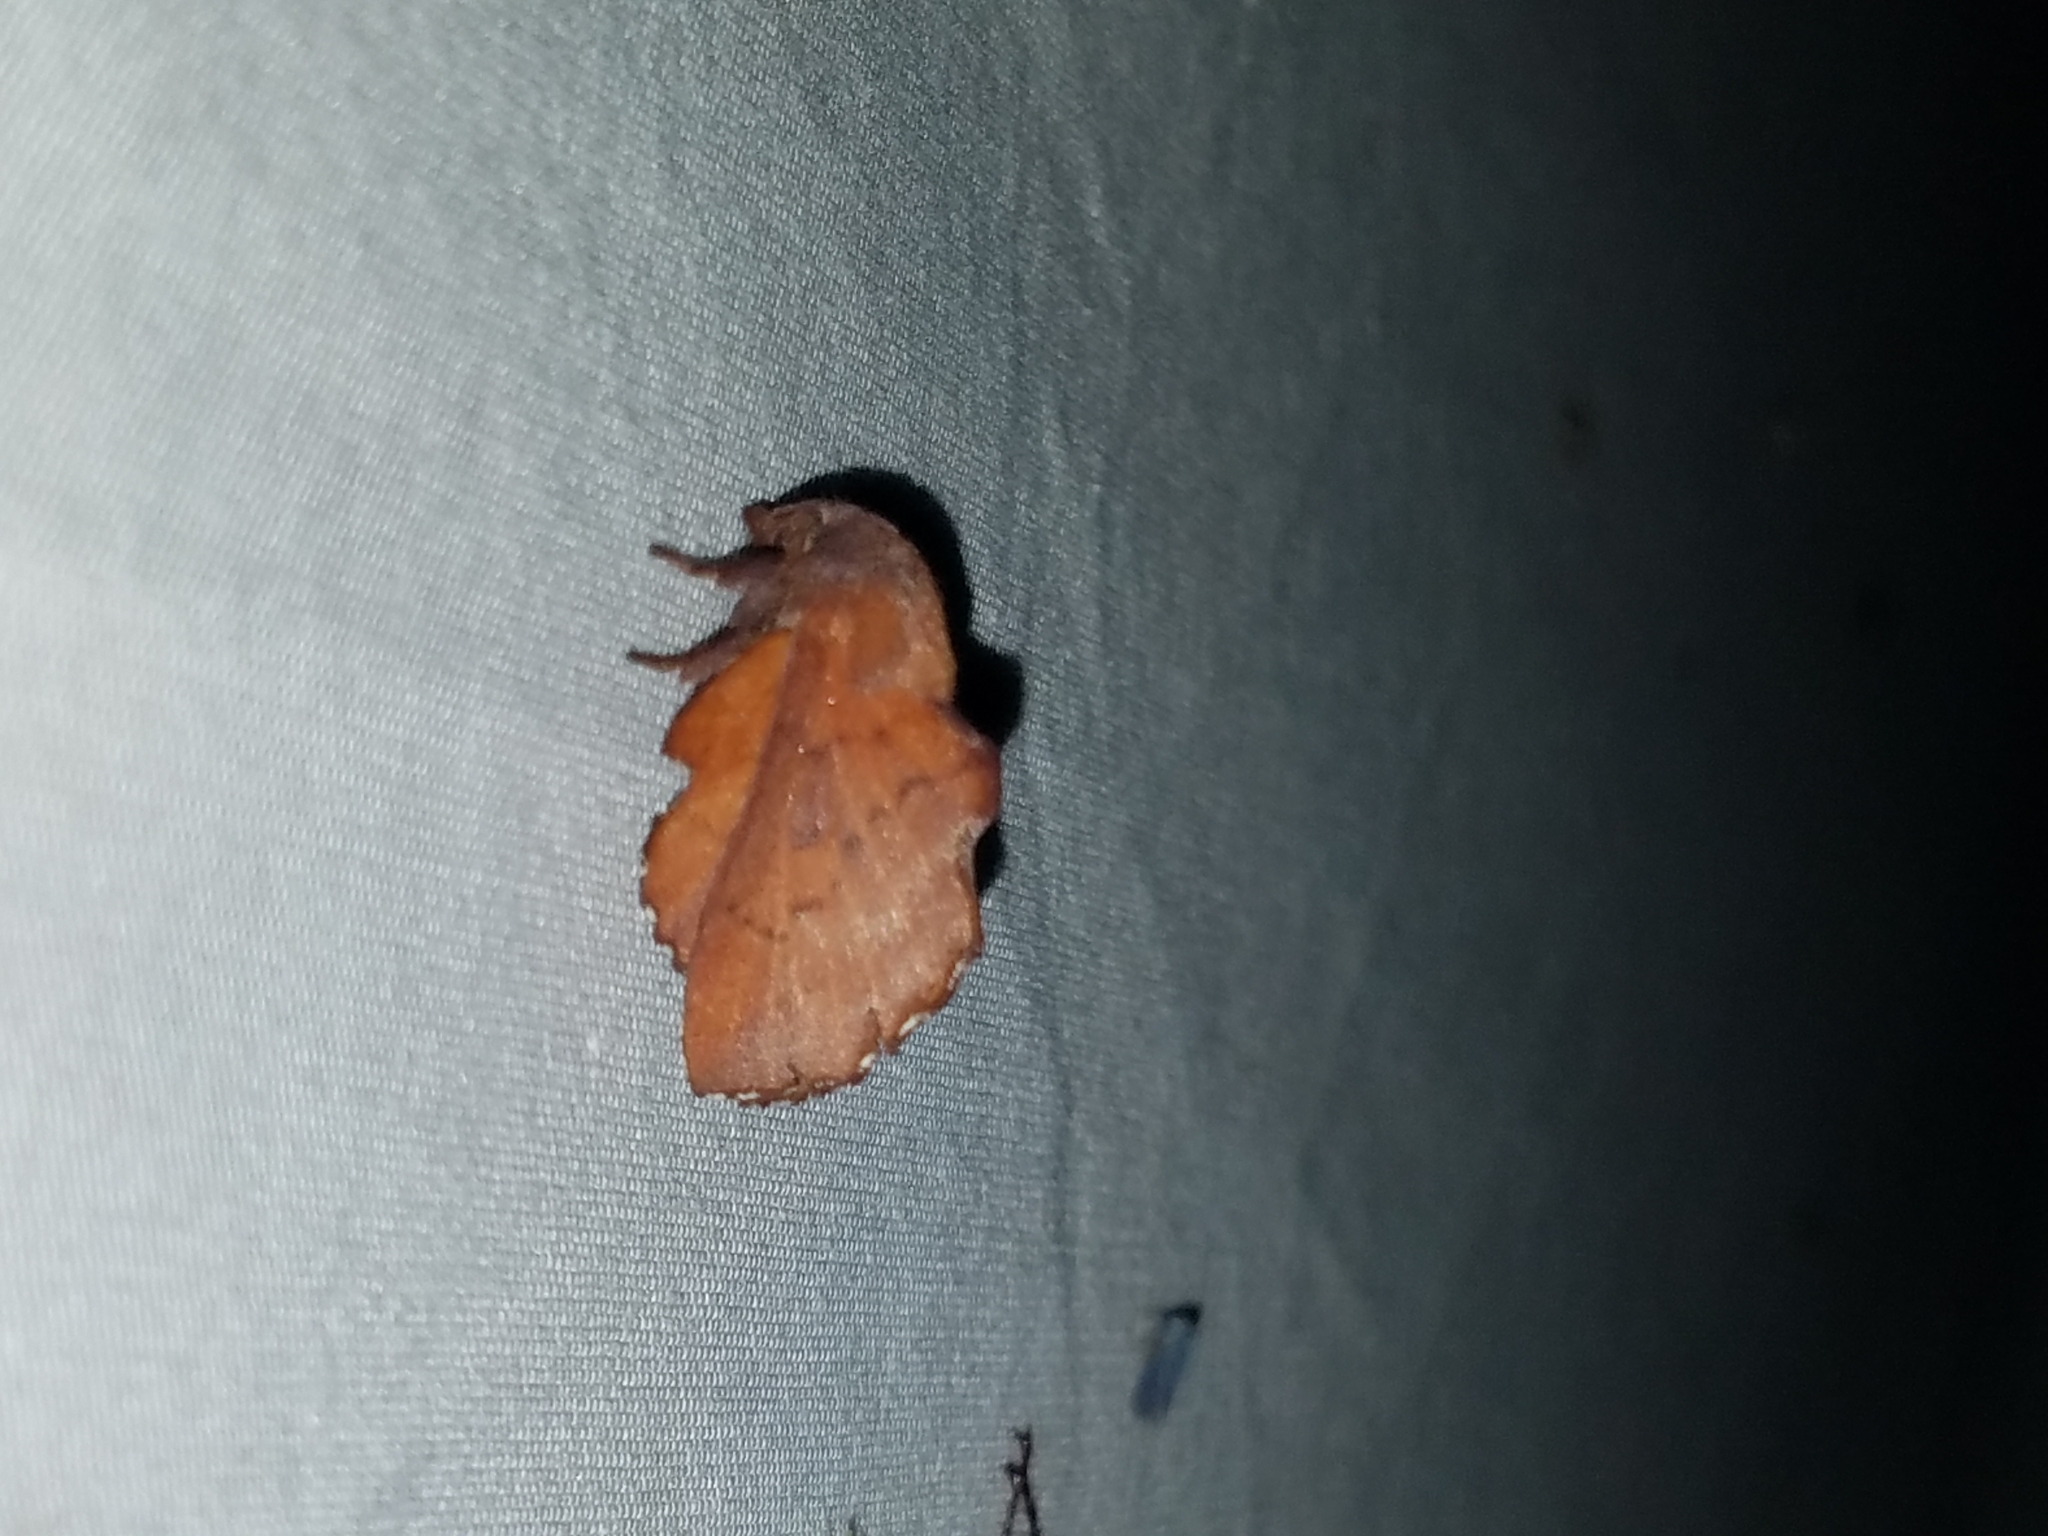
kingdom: Animalia
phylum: Arthropoda
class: Insecta
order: Lepidoptera
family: Lasiocampidae
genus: Phyllodesma
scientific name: Phyllodesma americana
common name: American lappet moth
